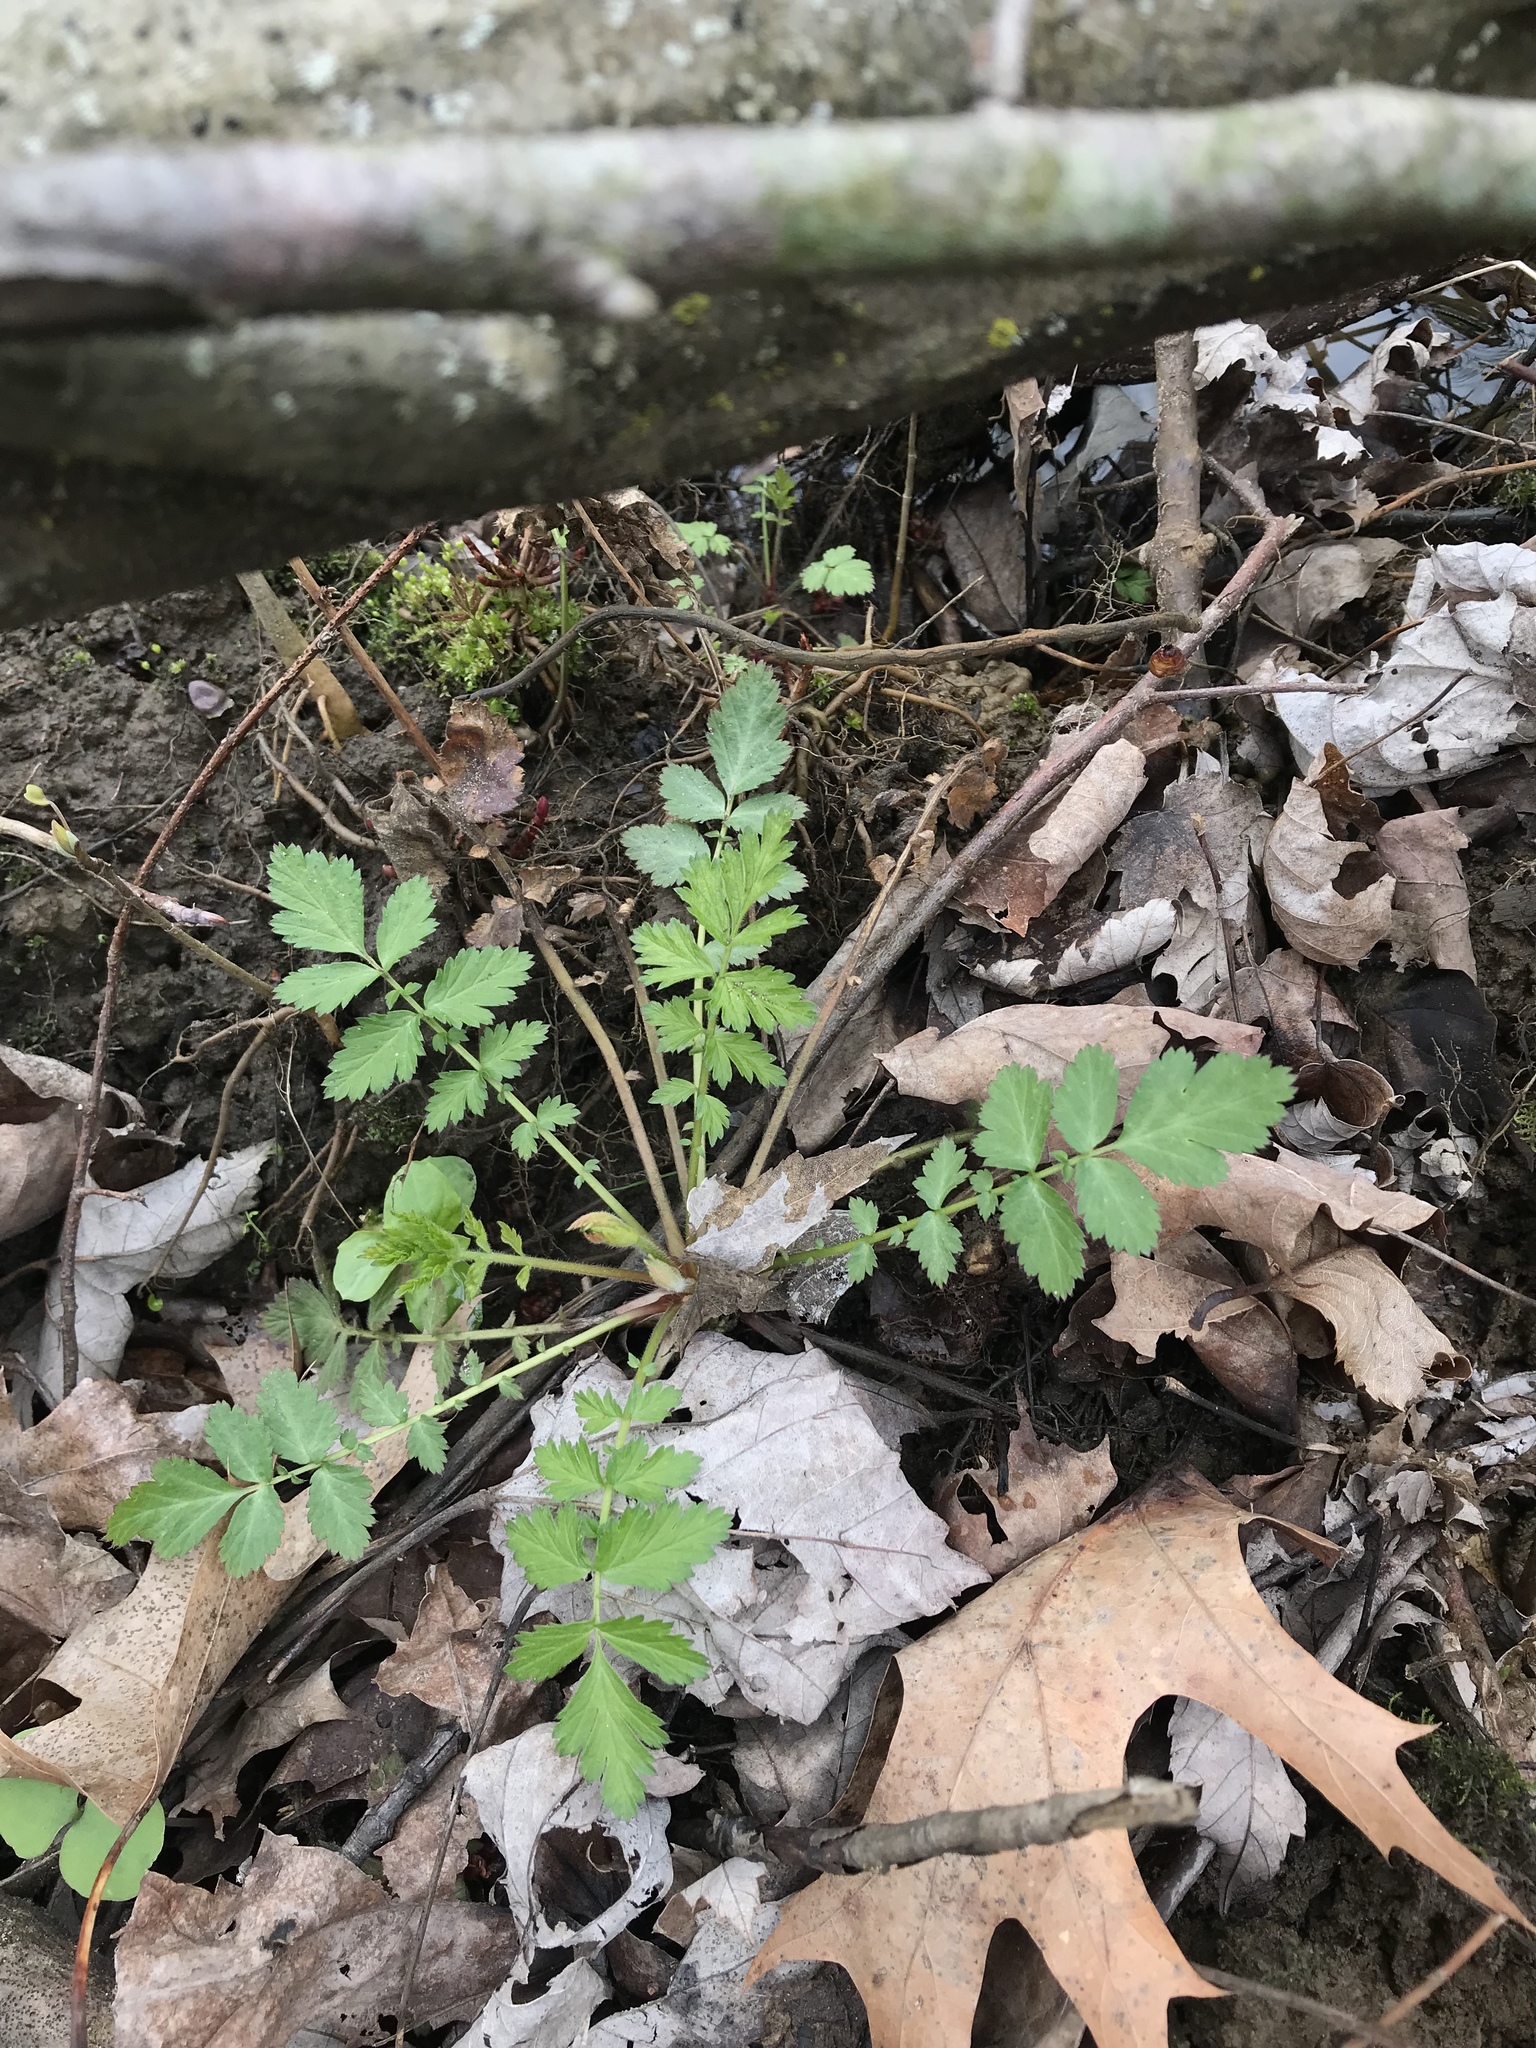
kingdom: Plantae
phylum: Tracheophyta
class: Magnoliopsida
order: Rosales
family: Rosaceae
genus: Agrimonia
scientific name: Agrimonia gryposepala
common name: Common agrimony
